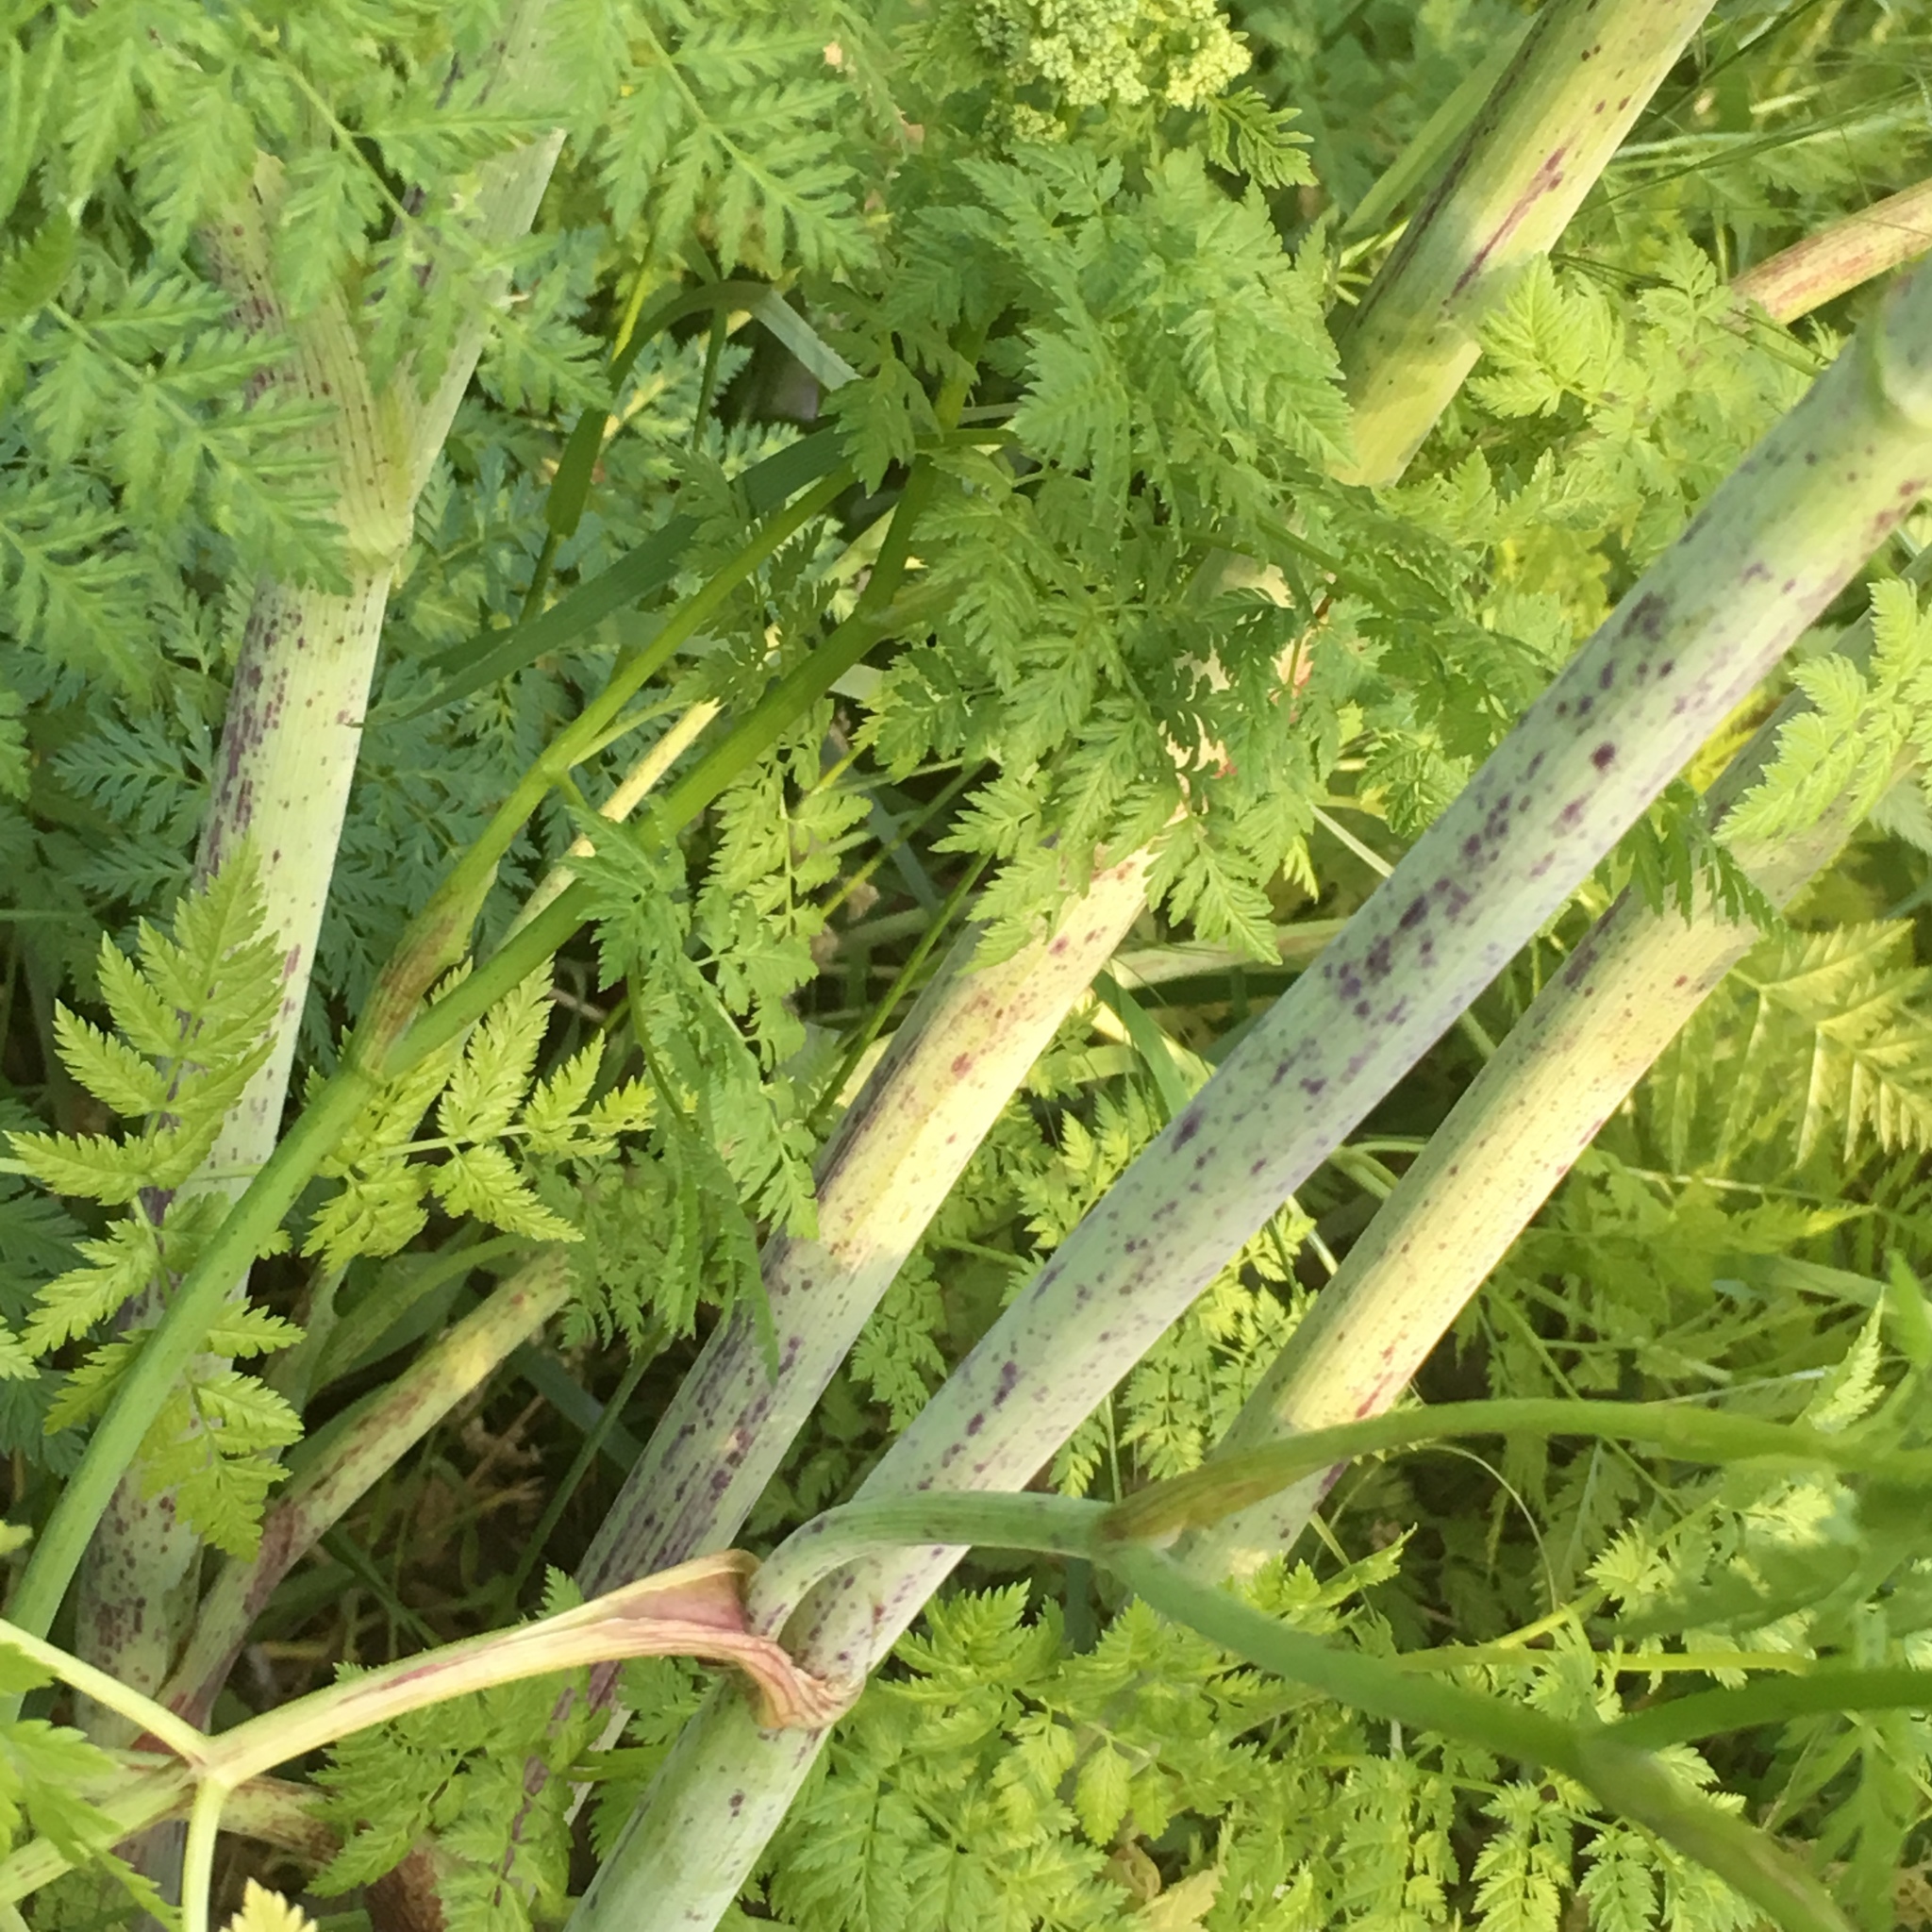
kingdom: Plantae
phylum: Tracheophyta
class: Magnoliopsida
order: Apiales
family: Apiaceae
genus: Conium
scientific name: Conium maculatum
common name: Hemlock
